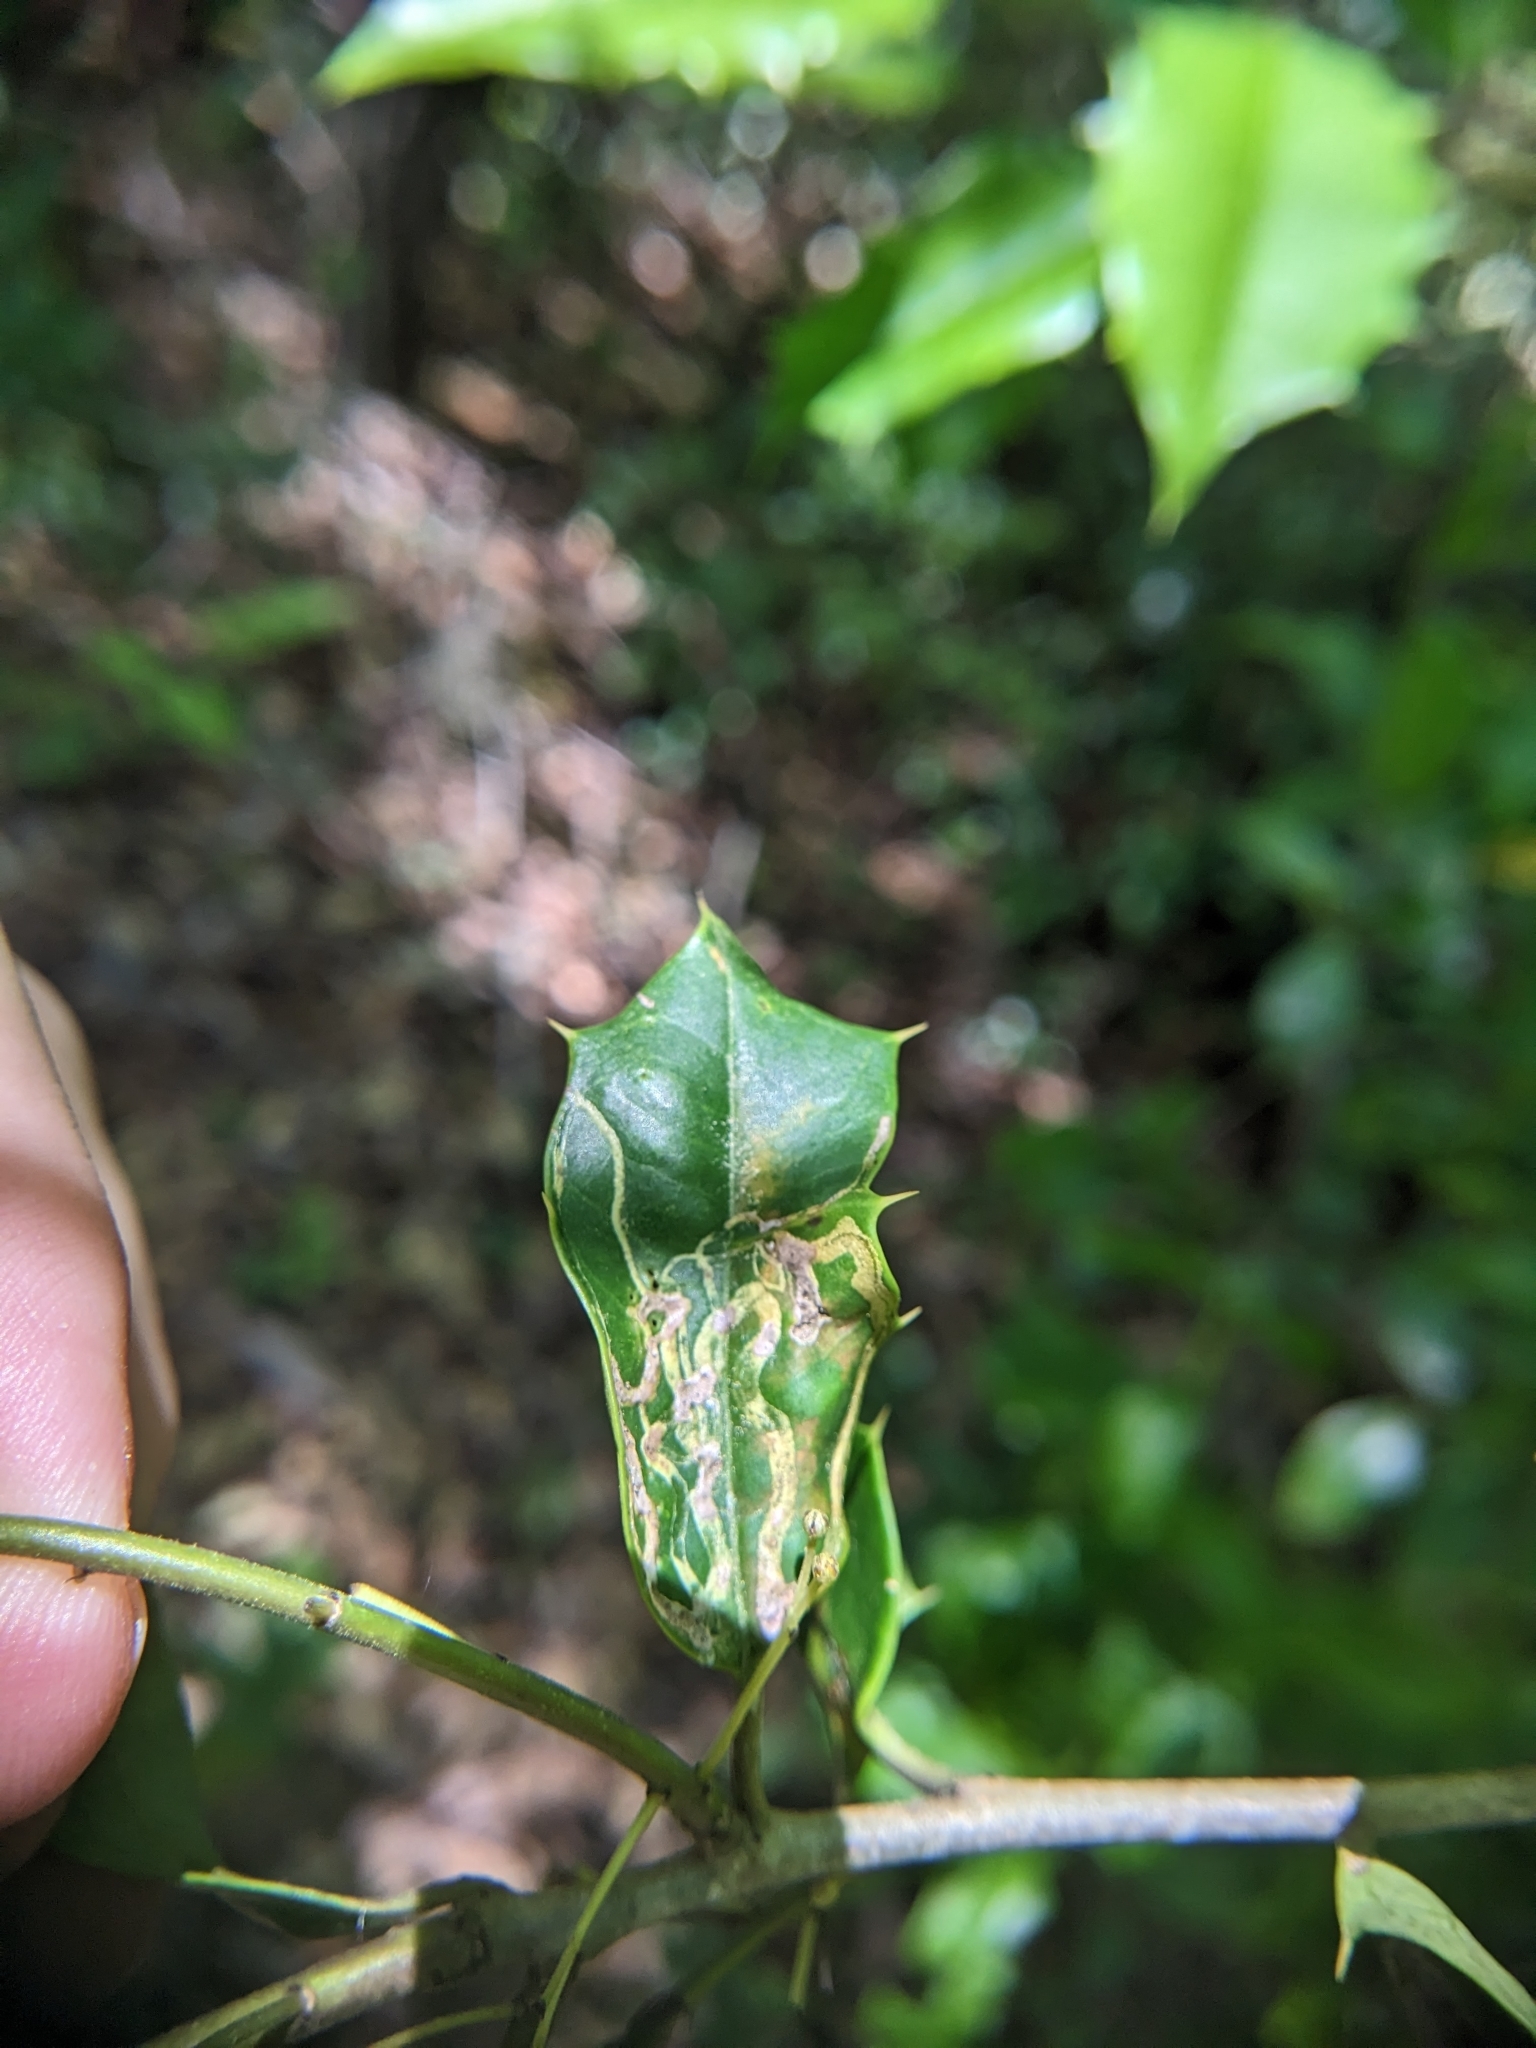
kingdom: Animalia
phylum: Arthropoda
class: Insecta
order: Diptera
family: Agromyzidae
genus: Phytomyza
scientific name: Phytomyza opacae
